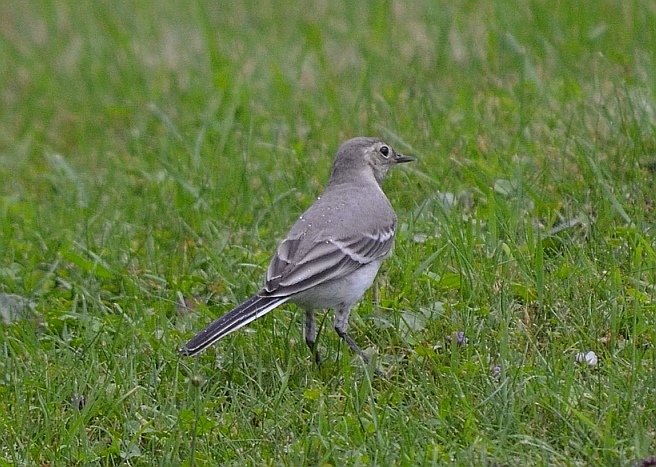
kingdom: Animalia
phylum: Chordata
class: Aves
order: Passeriformes
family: Motacillidae
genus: Motacilla
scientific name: Motacilla alba
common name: White wagtail
